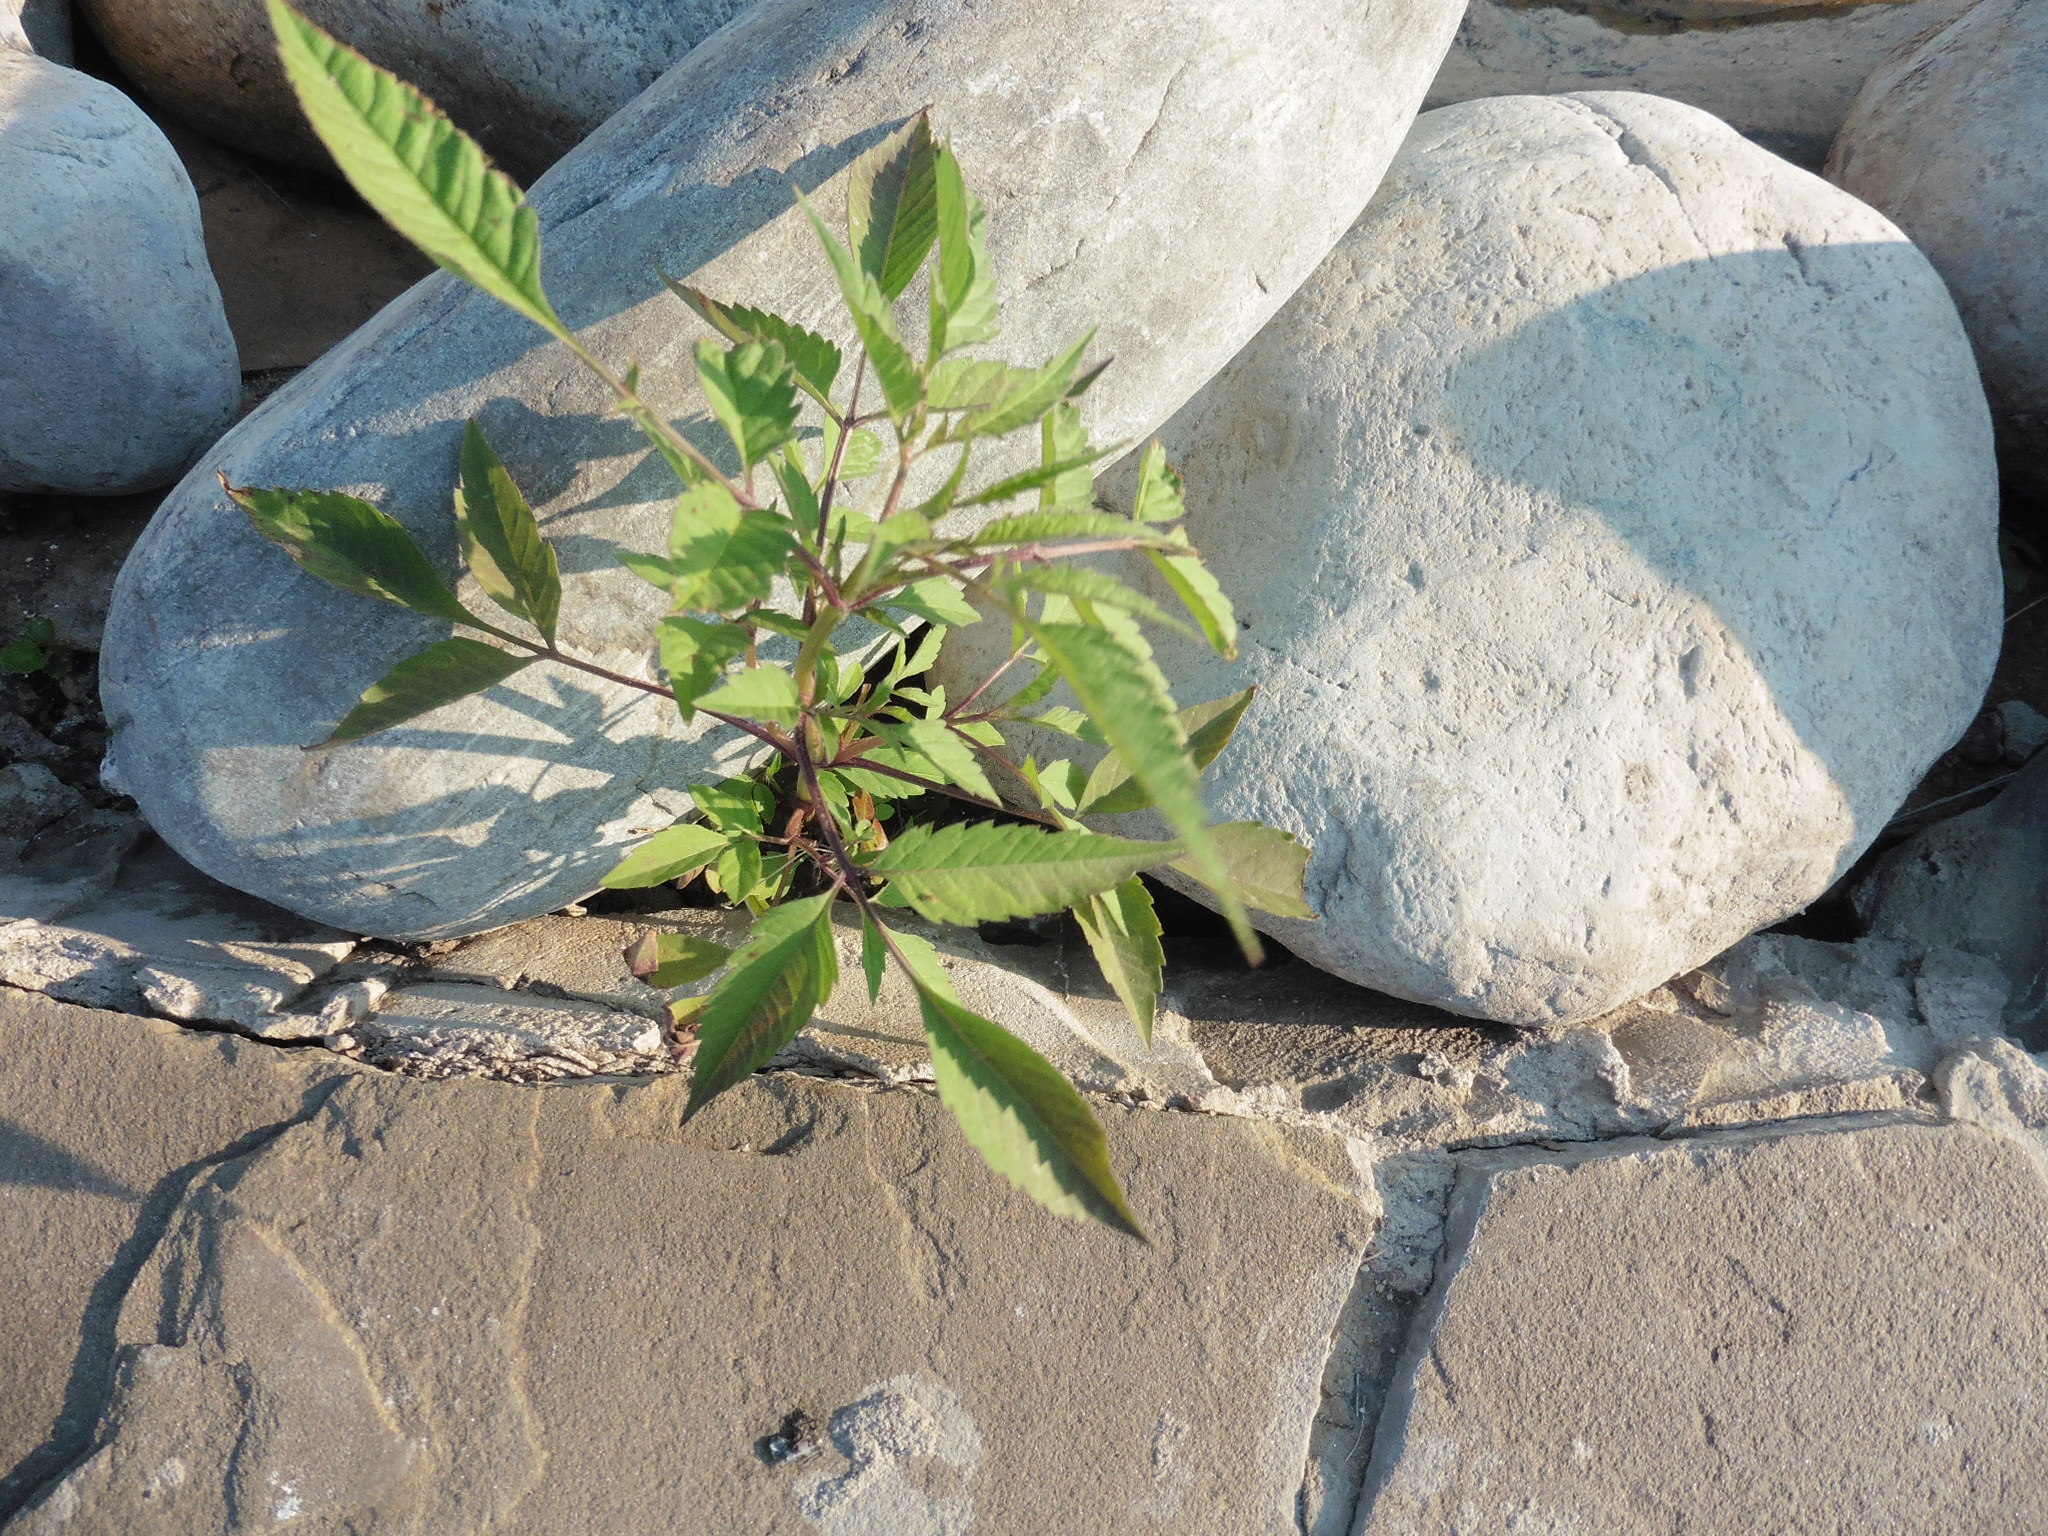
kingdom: Plantae
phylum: Tracheophyta
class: Magnoliopsida
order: Asterales
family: Asteraceae
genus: Bidens
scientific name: Bidens frondosa
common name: Beggarticks
